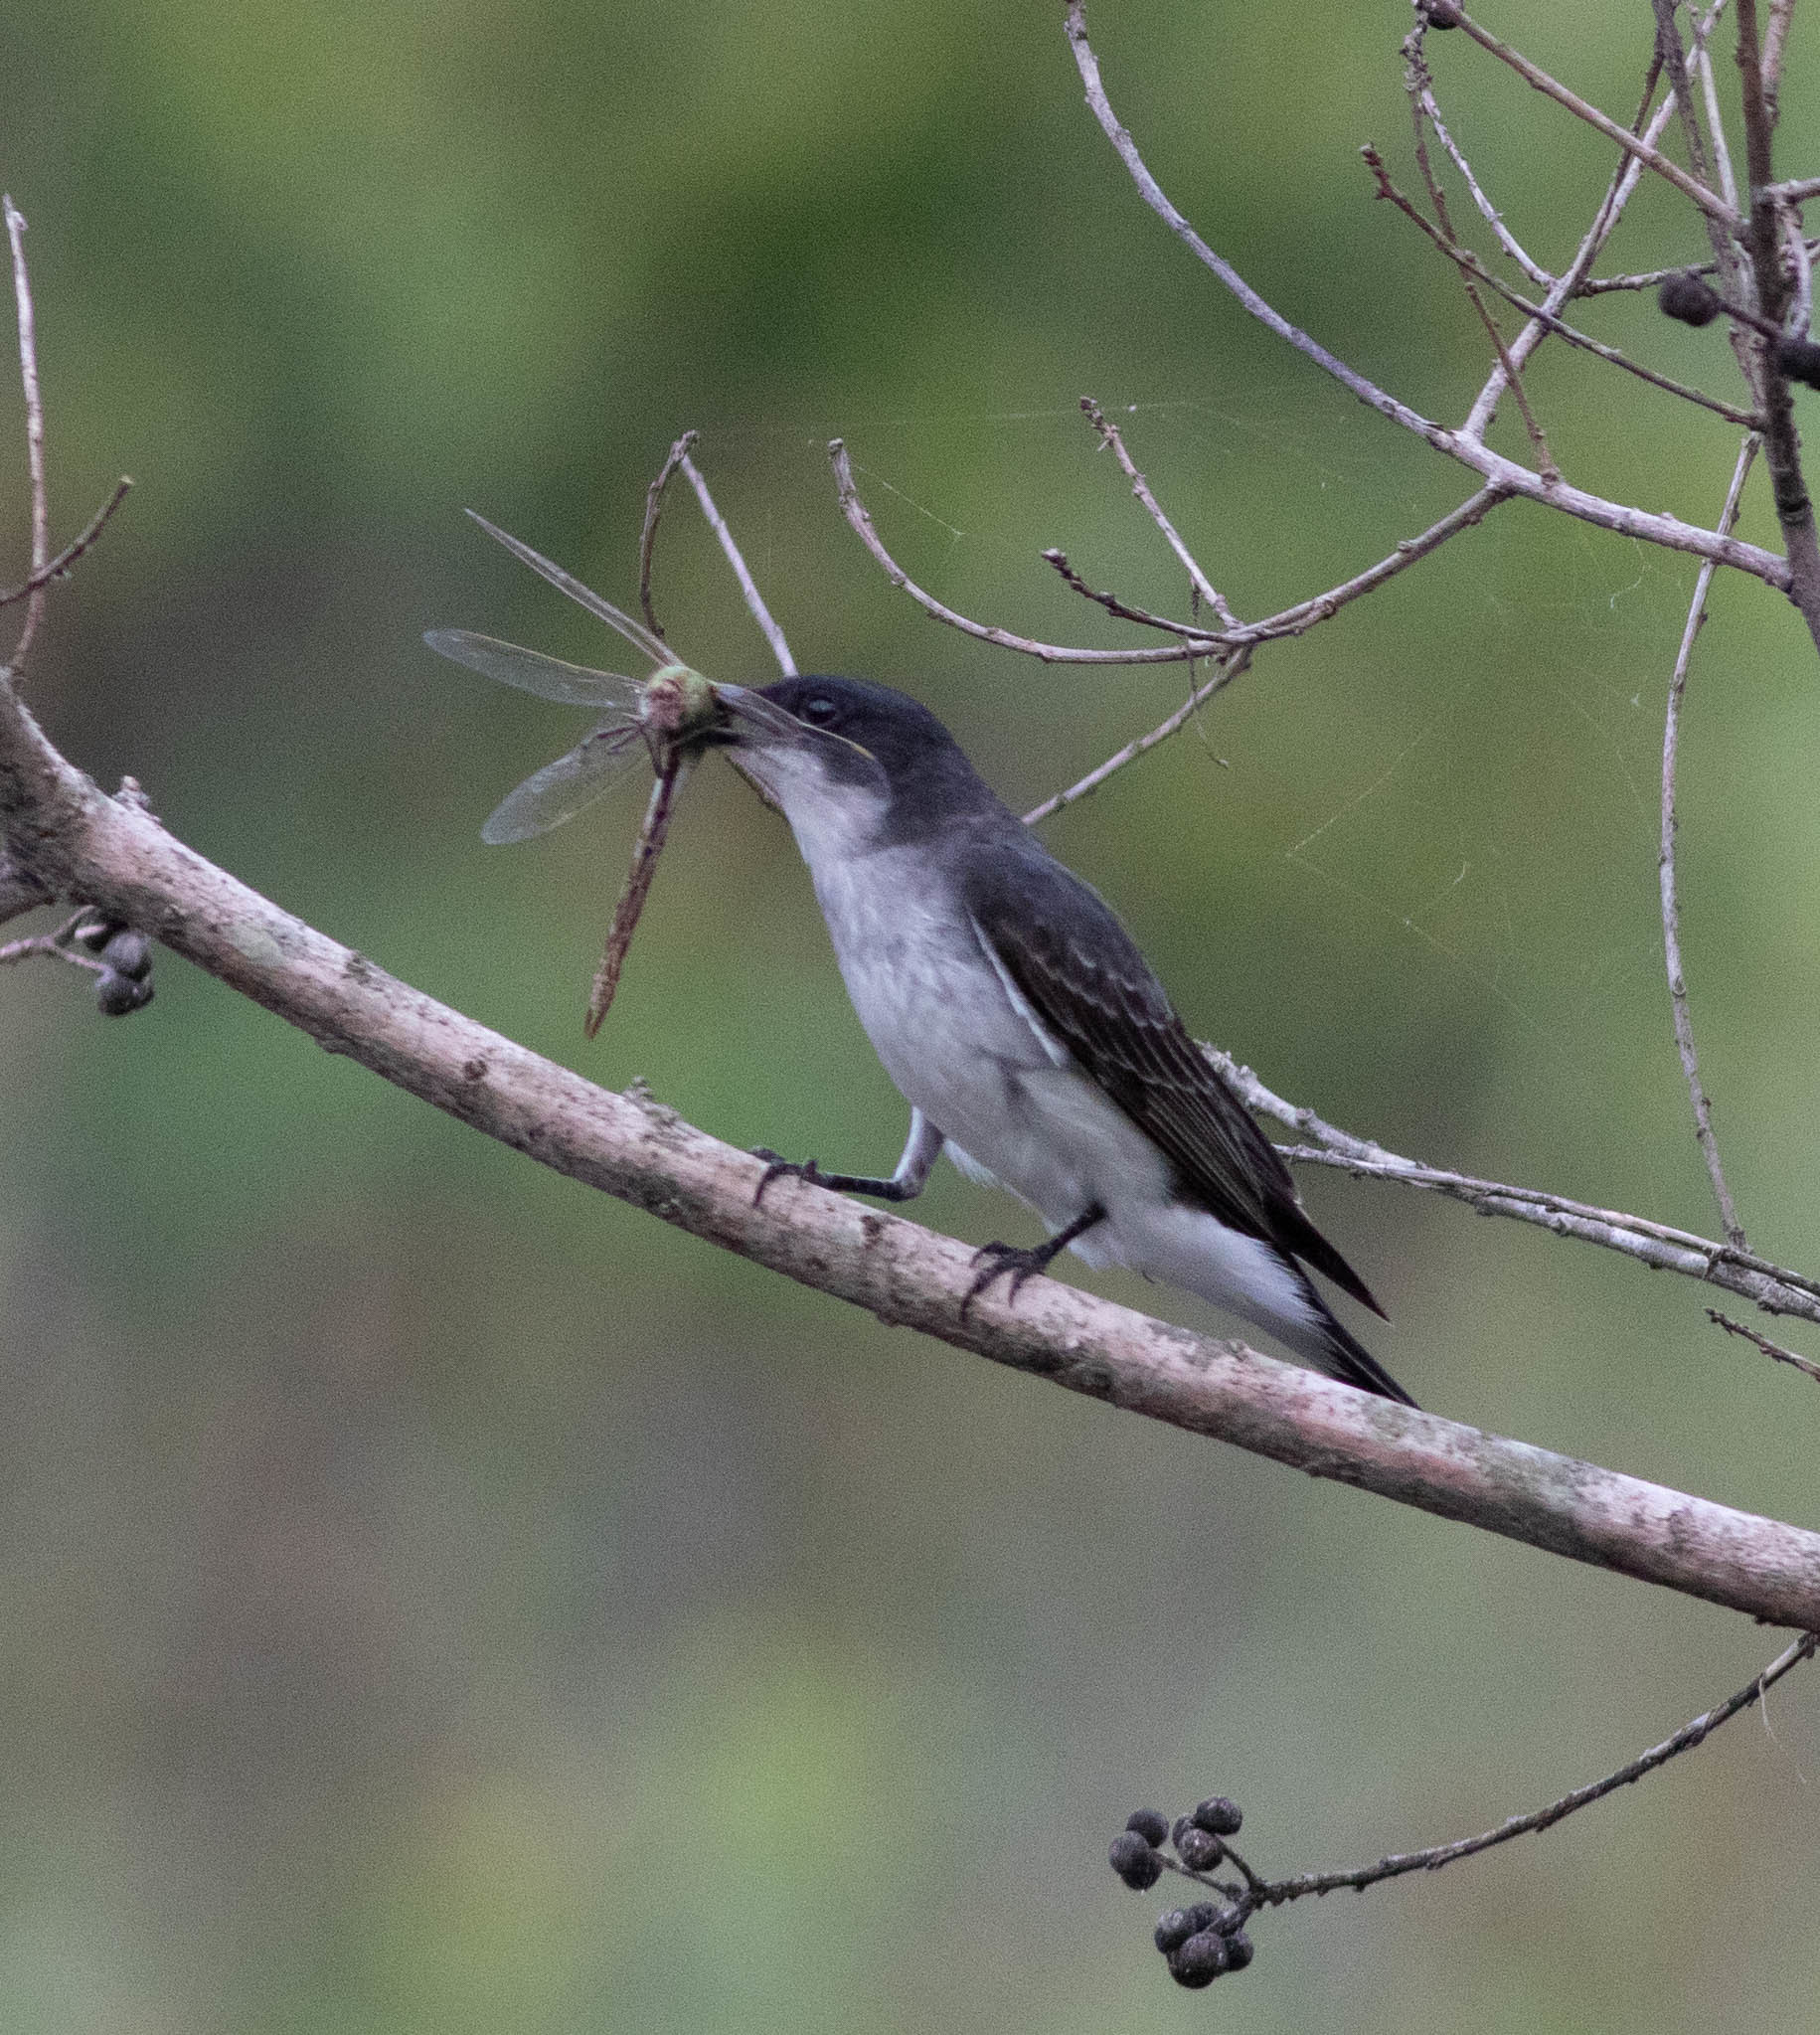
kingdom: Animalia
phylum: Chordata
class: Aves
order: Passeriformes
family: Tyrannidae
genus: Tyrannus
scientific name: Tyrannus tyrannus
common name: Eastern kingbird
